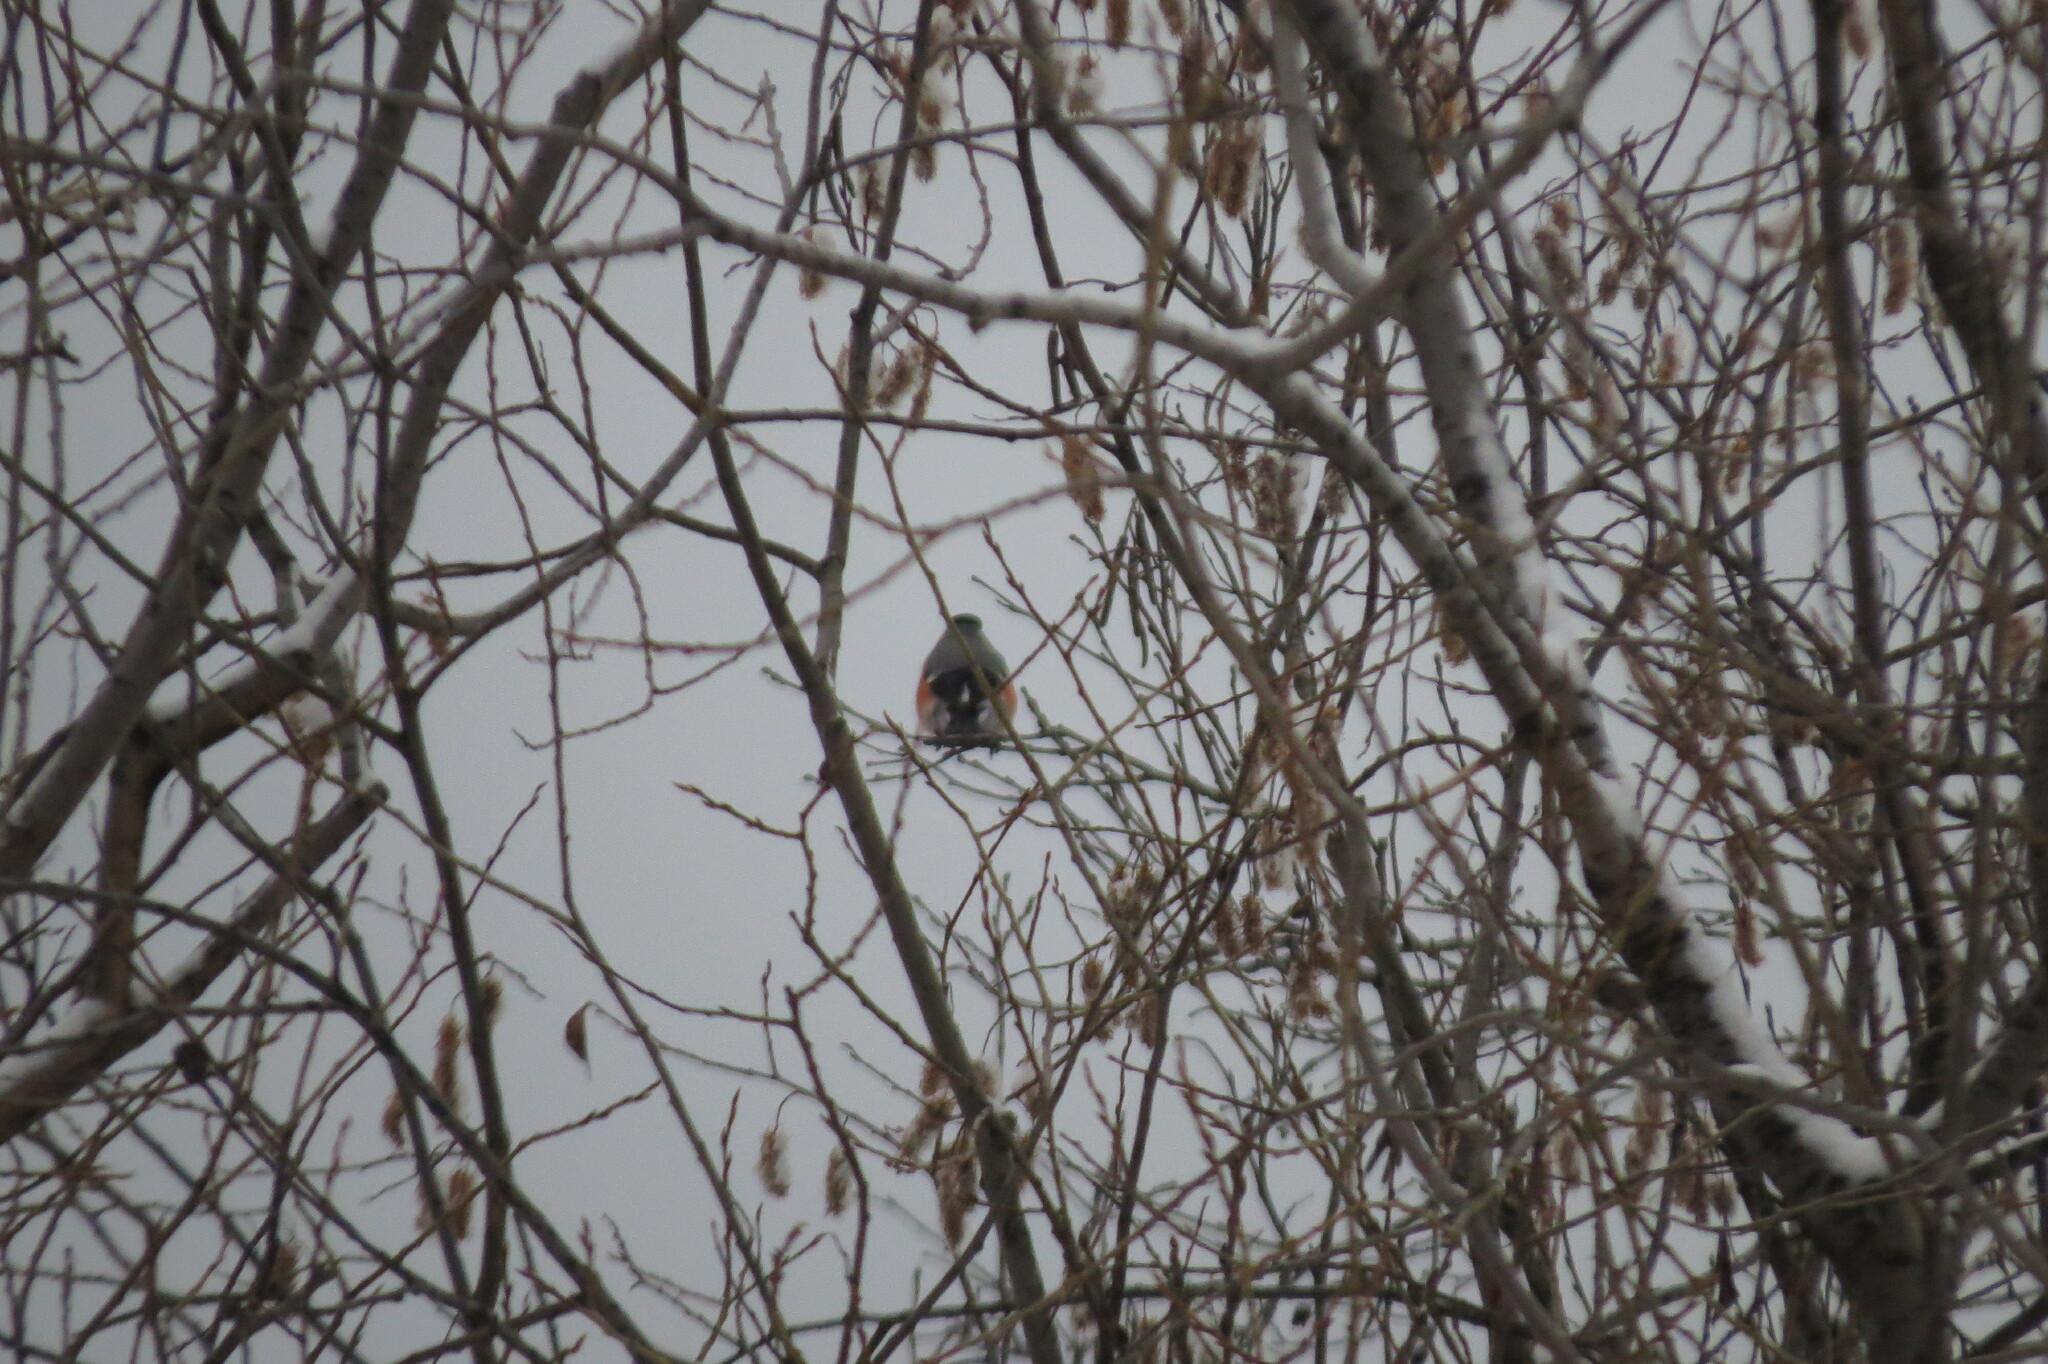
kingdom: Animalia
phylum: Chordata
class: Aves
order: Passeriformes
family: Fringillidae
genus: Pyrrhula
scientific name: Pyrrhula pyrrhula
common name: Eurasian bullfinch
